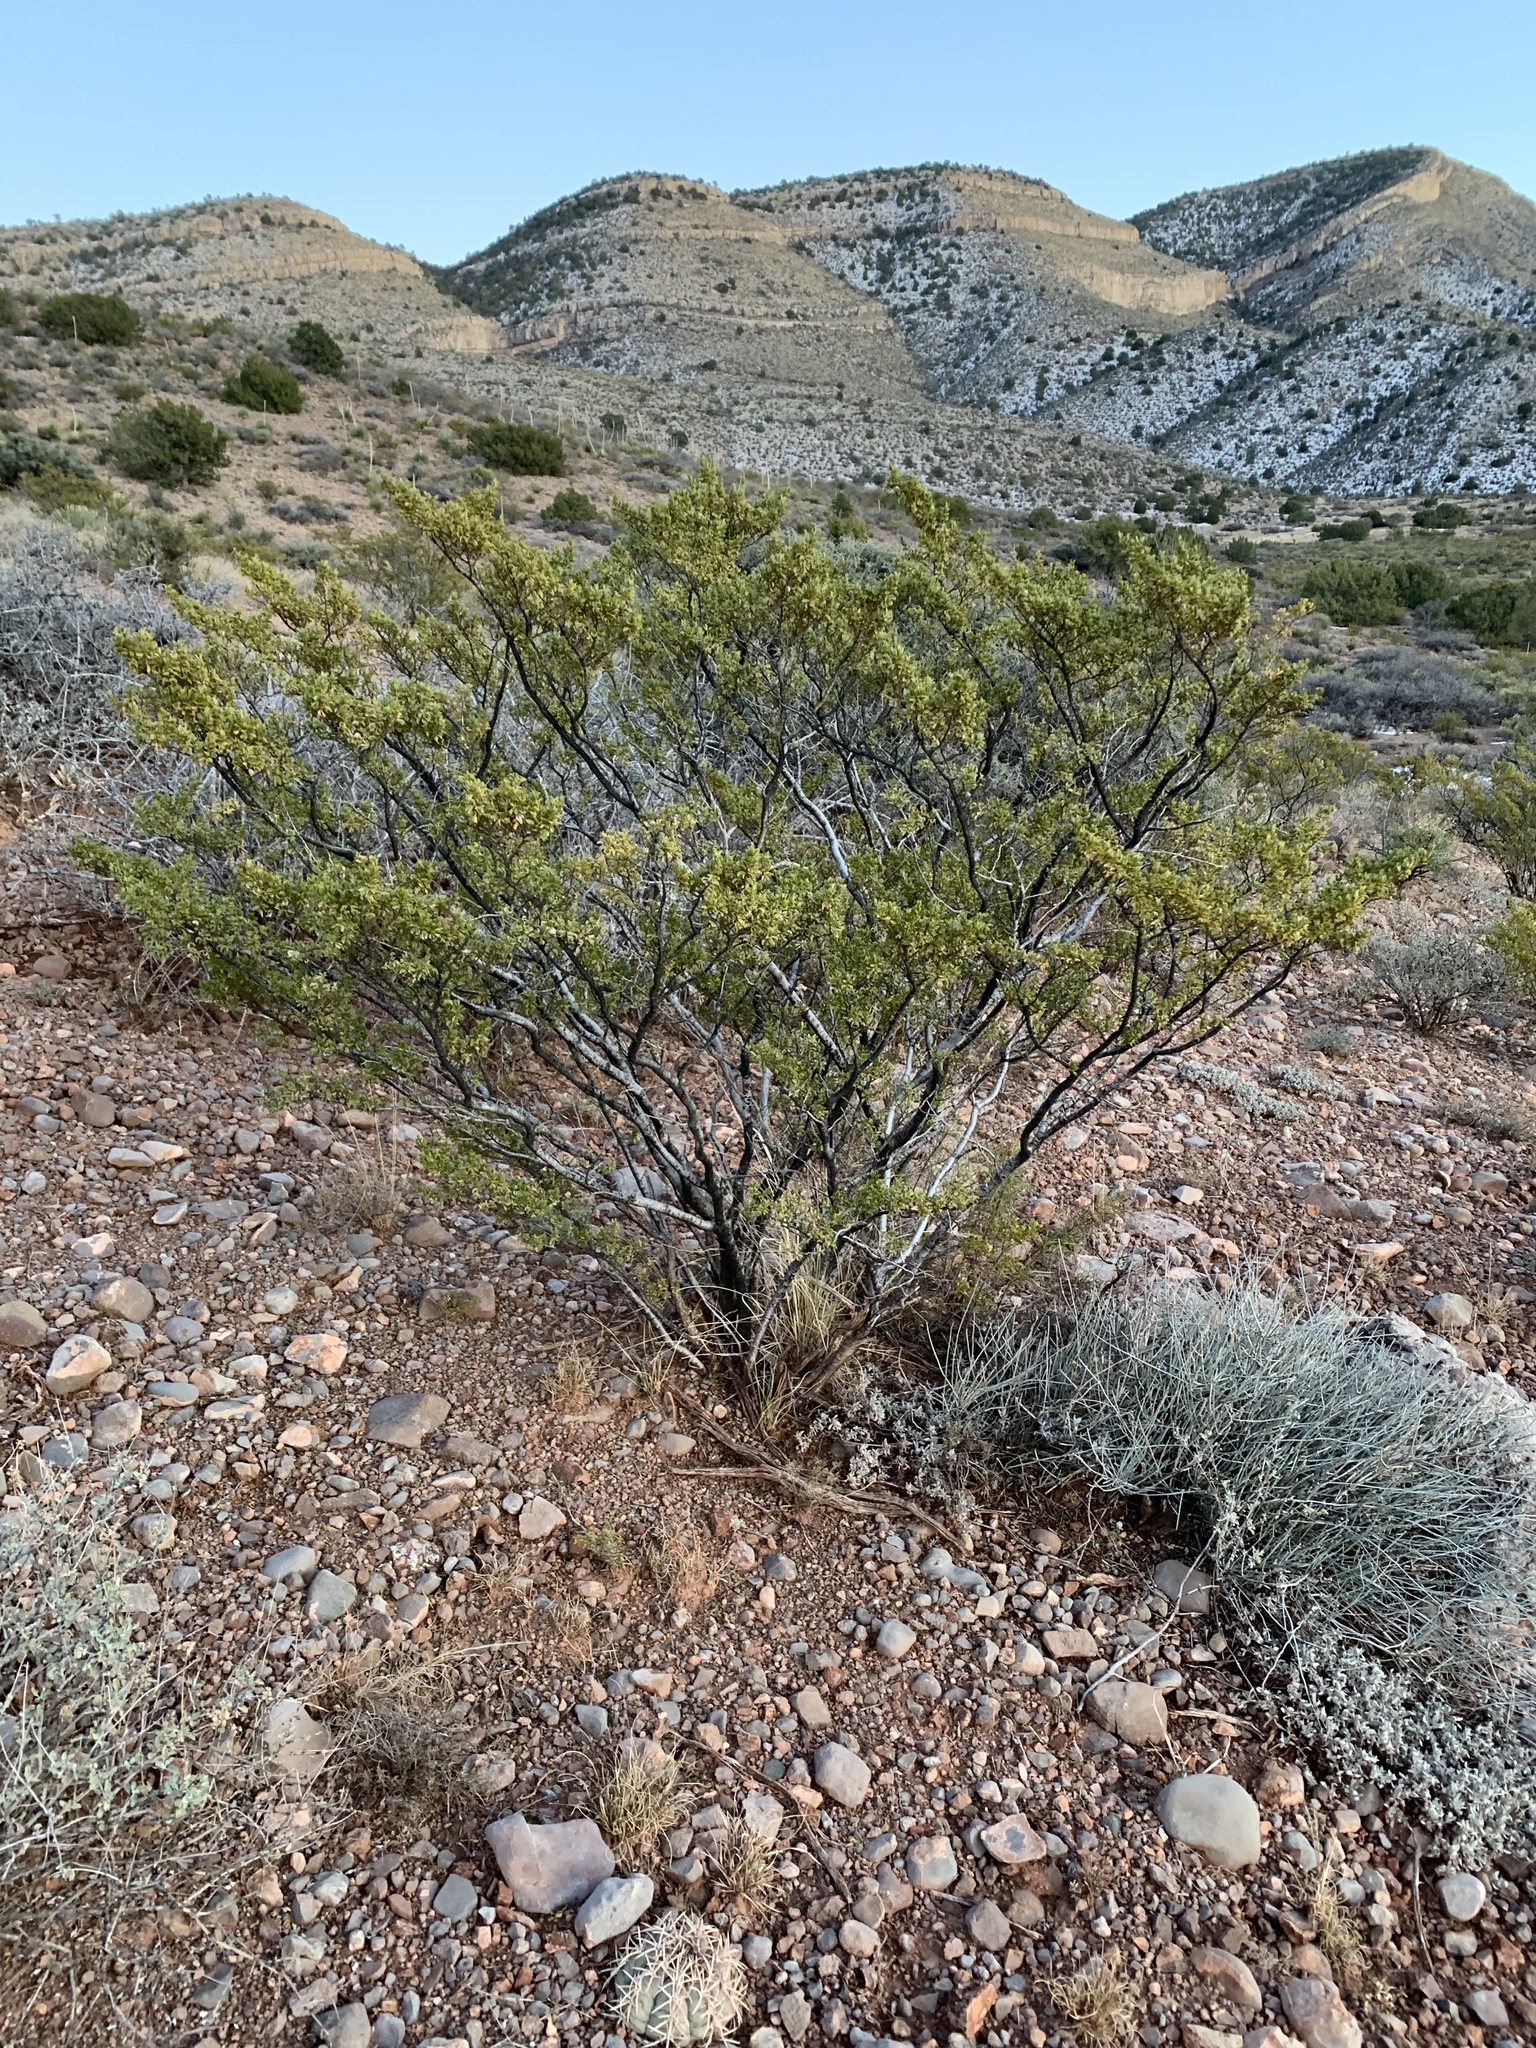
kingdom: Plantae
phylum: Tracheophyta
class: Magnoliopsida
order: Zygophyllales
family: Zygophyllaceae
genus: Larrea
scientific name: Larrea tridentata
